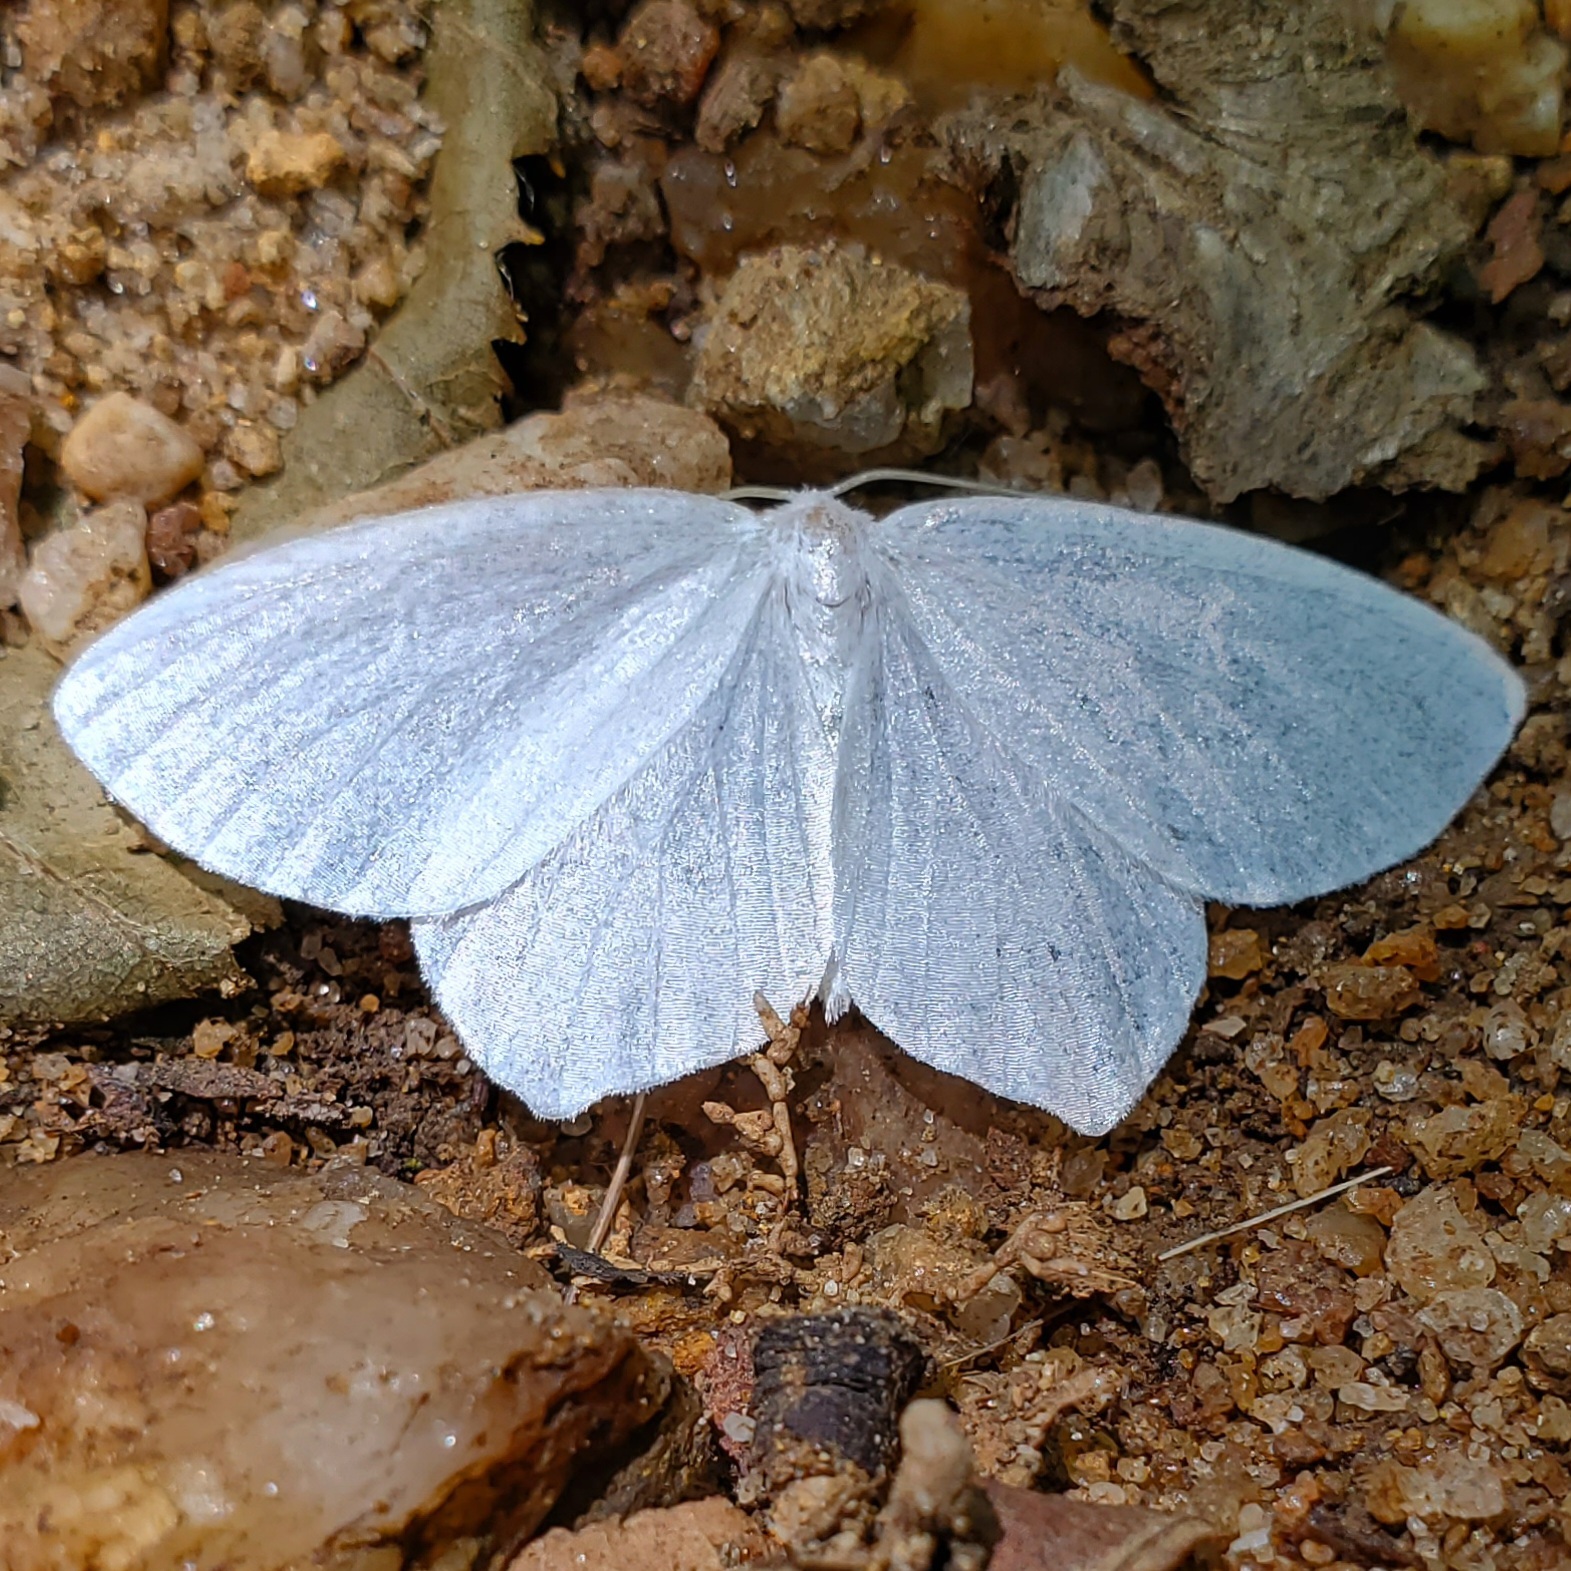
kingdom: Animalia
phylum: Arthropoda
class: Insecta
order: Lepidoptera
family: Geometridae
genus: Eugonobapta
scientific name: Eugonobapta nivosaria
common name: Snowy geometer
